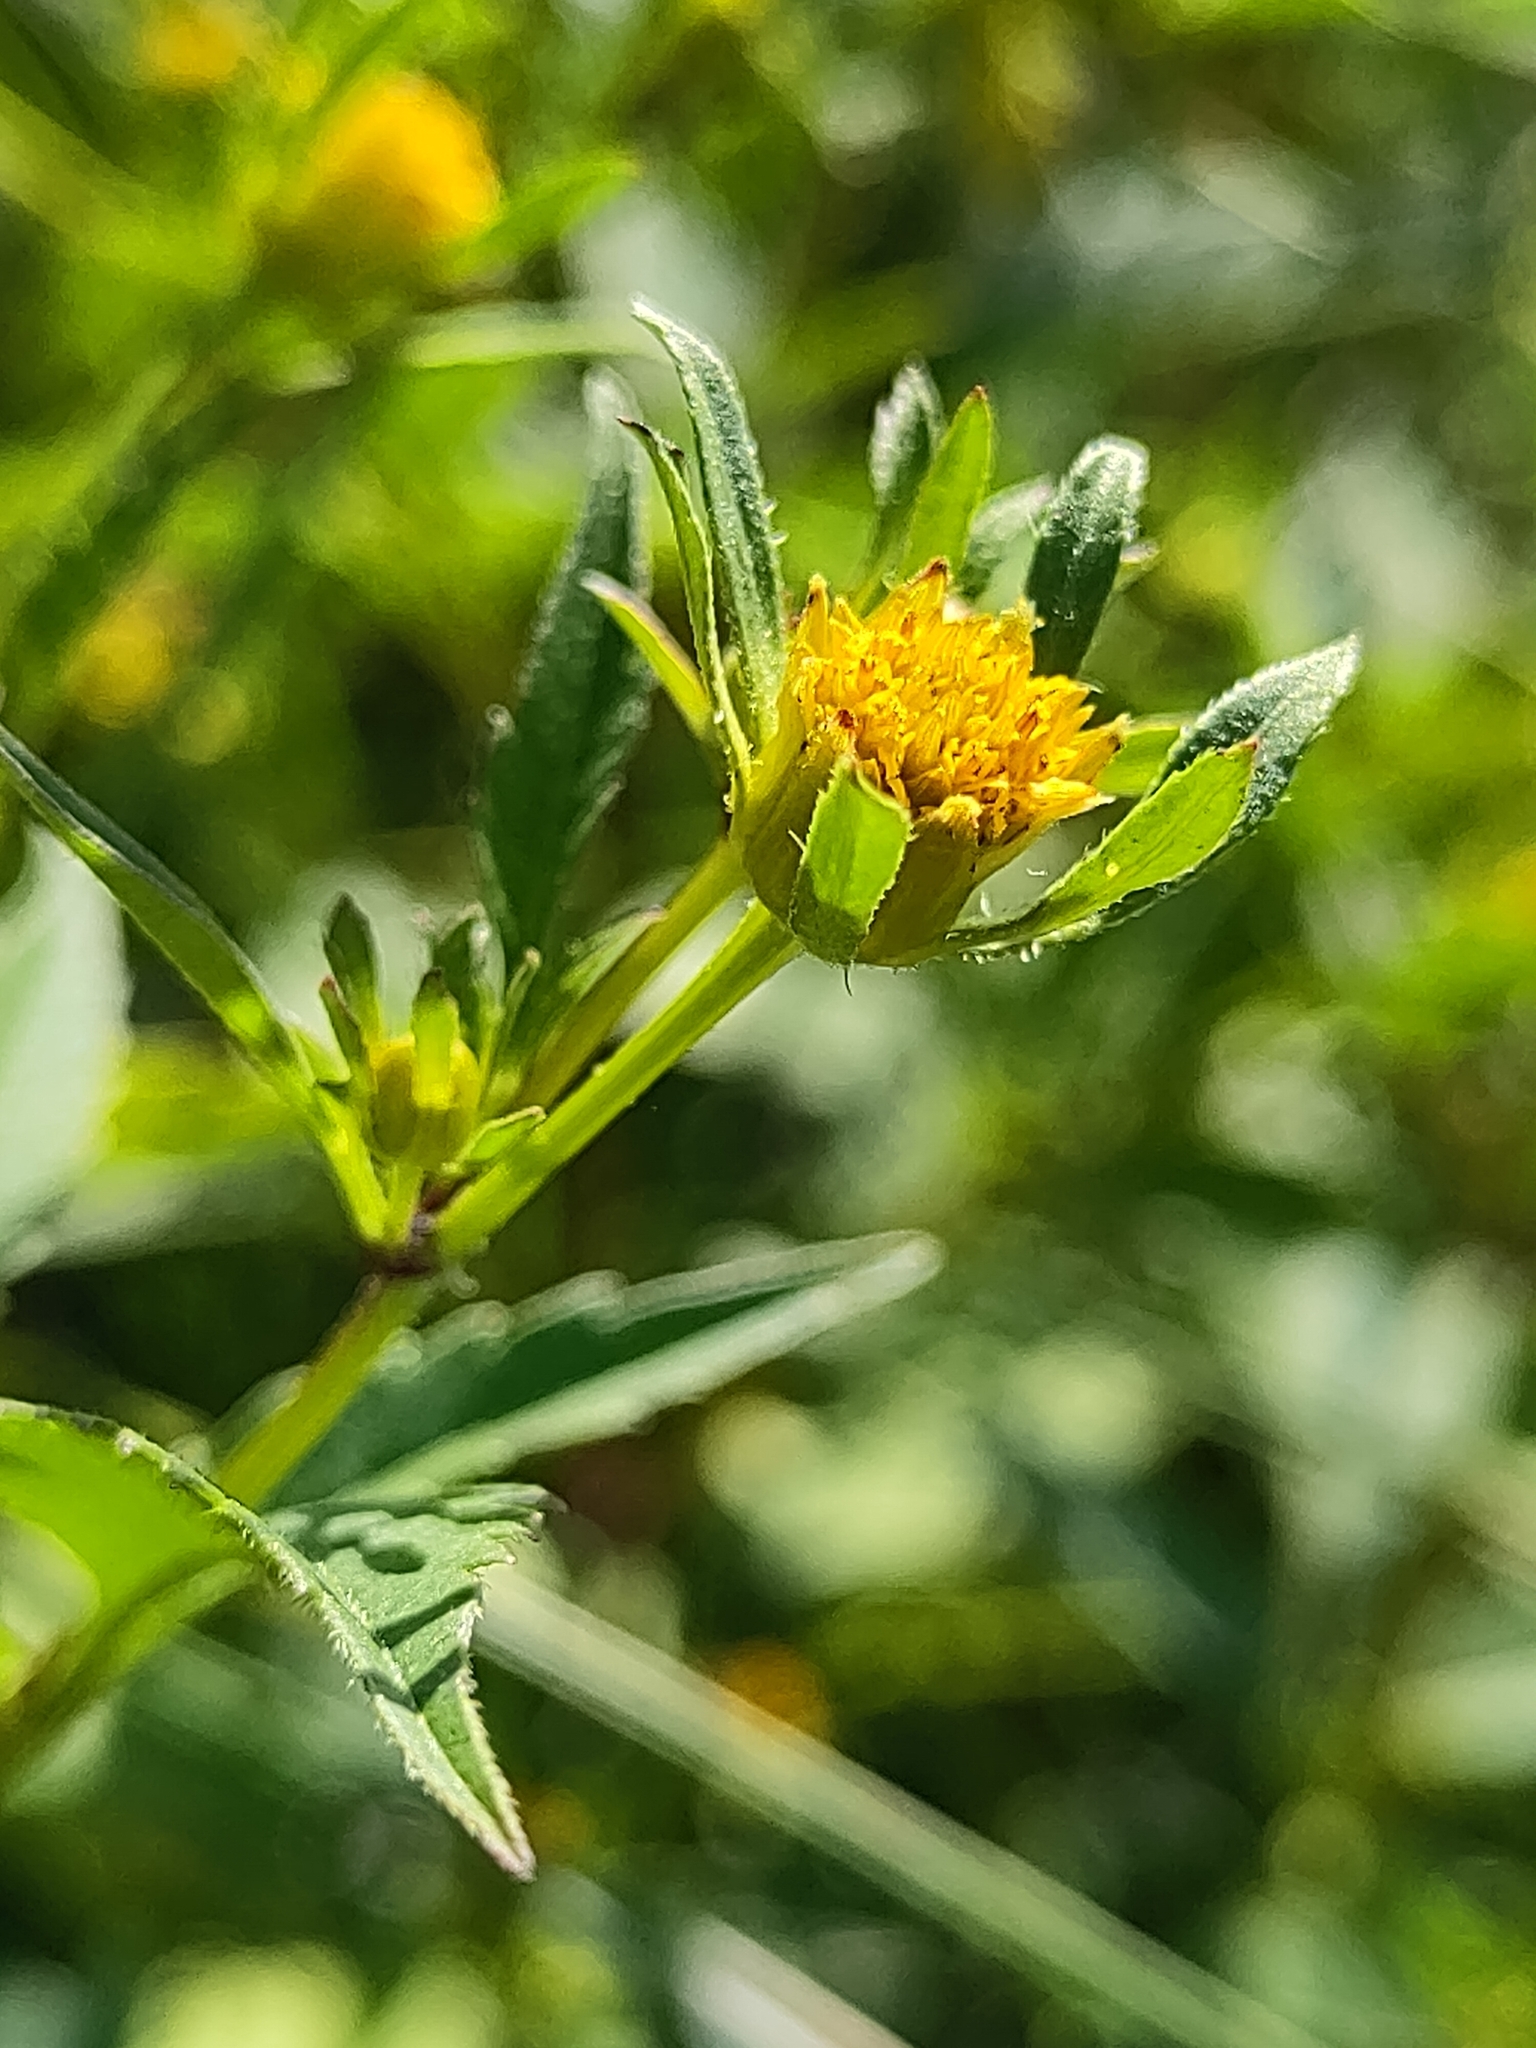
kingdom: Plantae
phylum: Tracheophyta
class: Magnoliopsida
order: Asterales
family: Asteraceae
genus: Bidens
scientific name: Bidens frondosa
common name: Beggarticks
